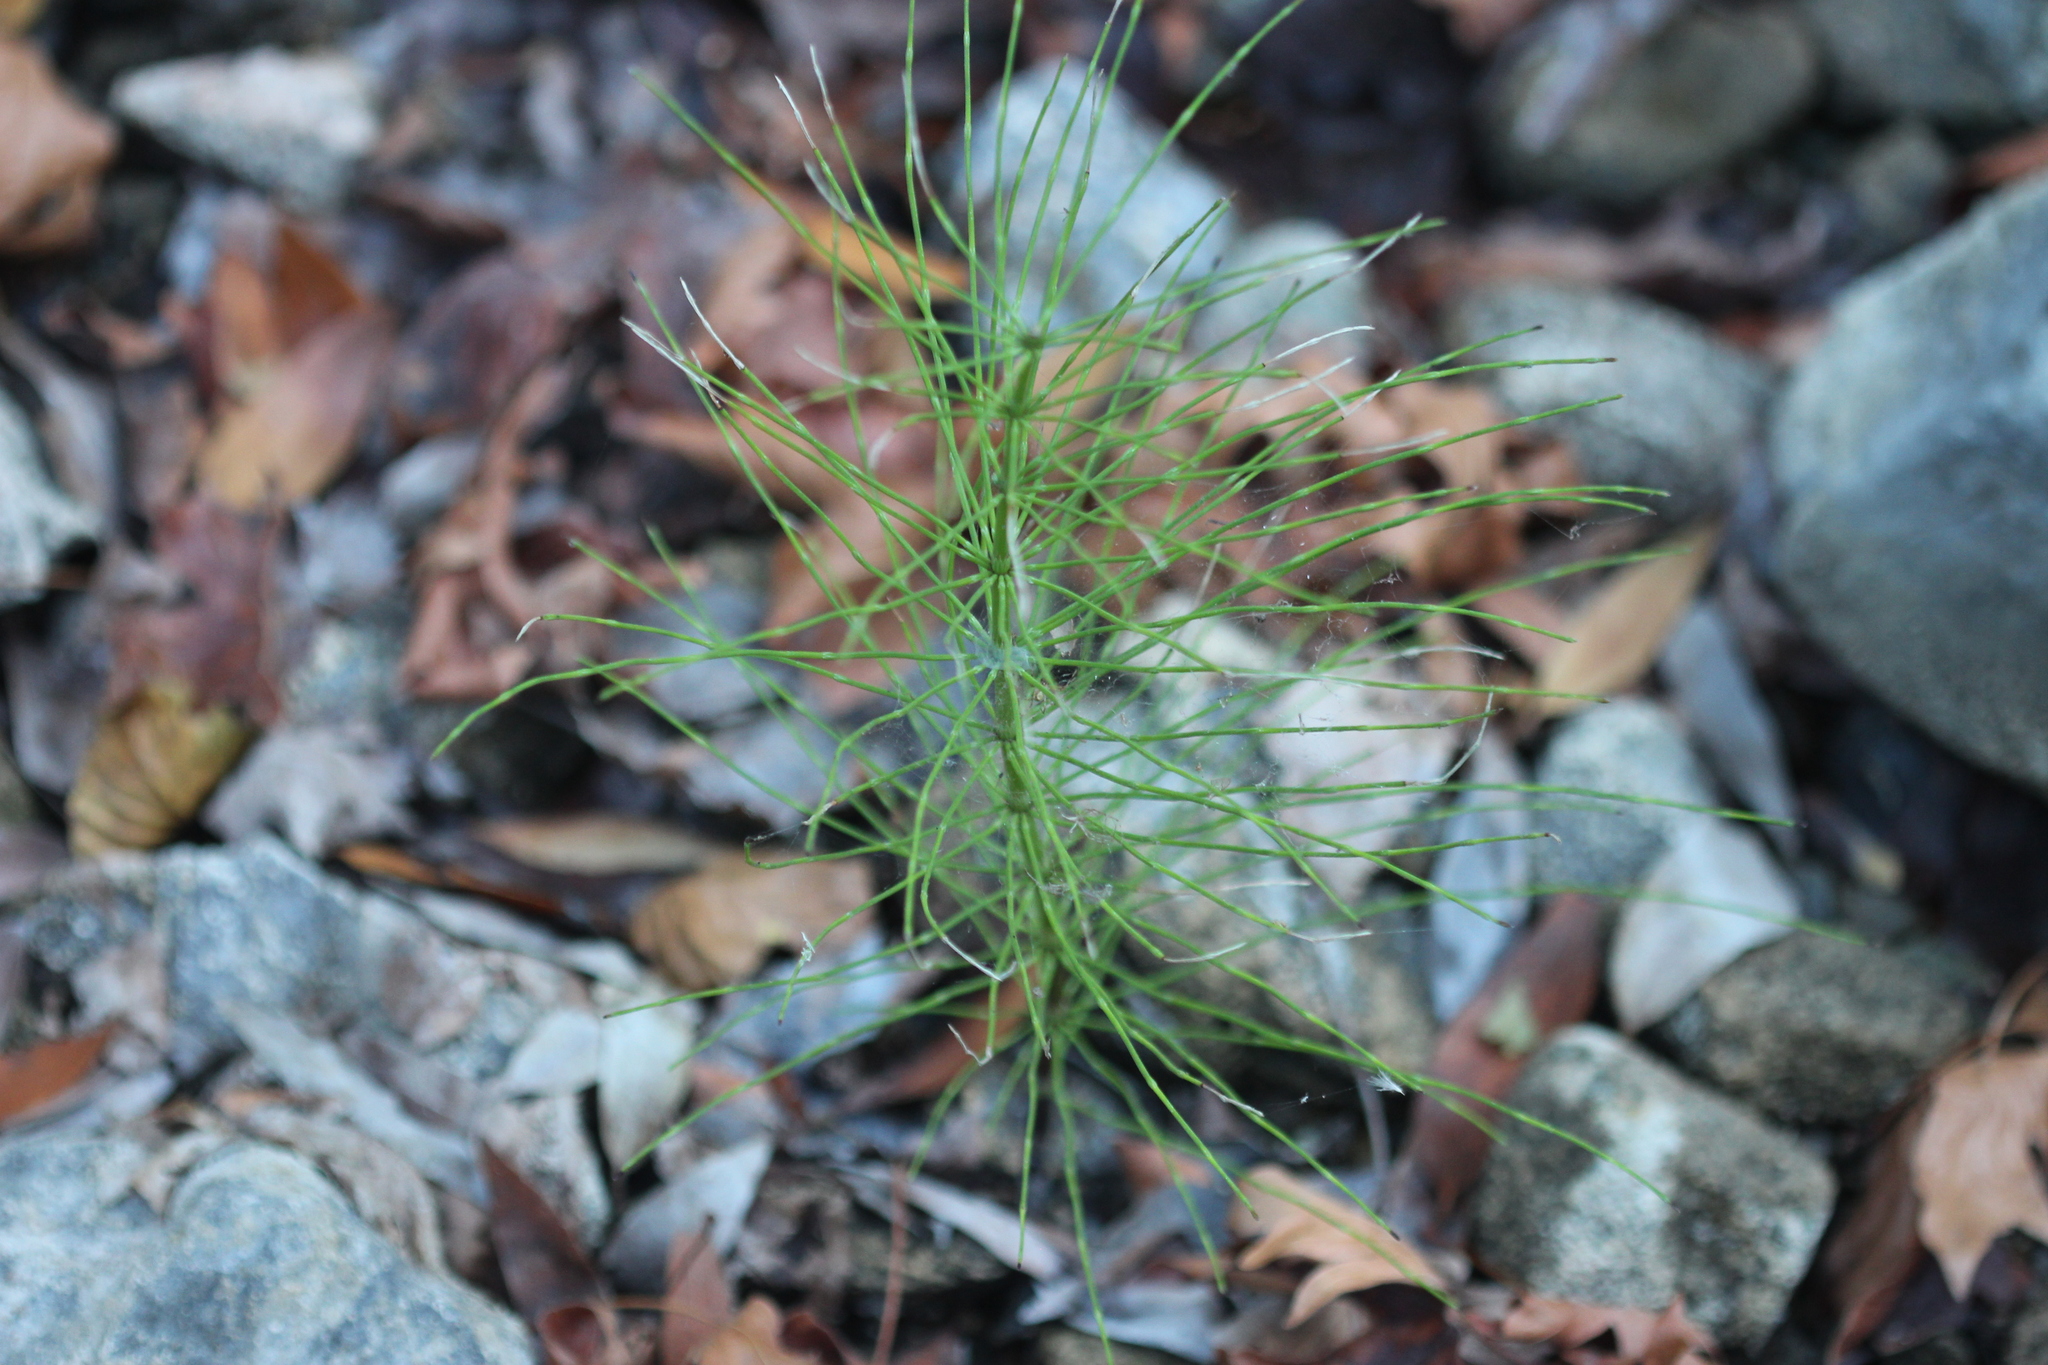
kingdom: Plantae
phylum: Tracheophyta
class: Polypodiopsida
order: Equisetales
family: Equisetaceae
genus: Equisetum
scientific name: Equisetum arvense
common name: Field horsetail
